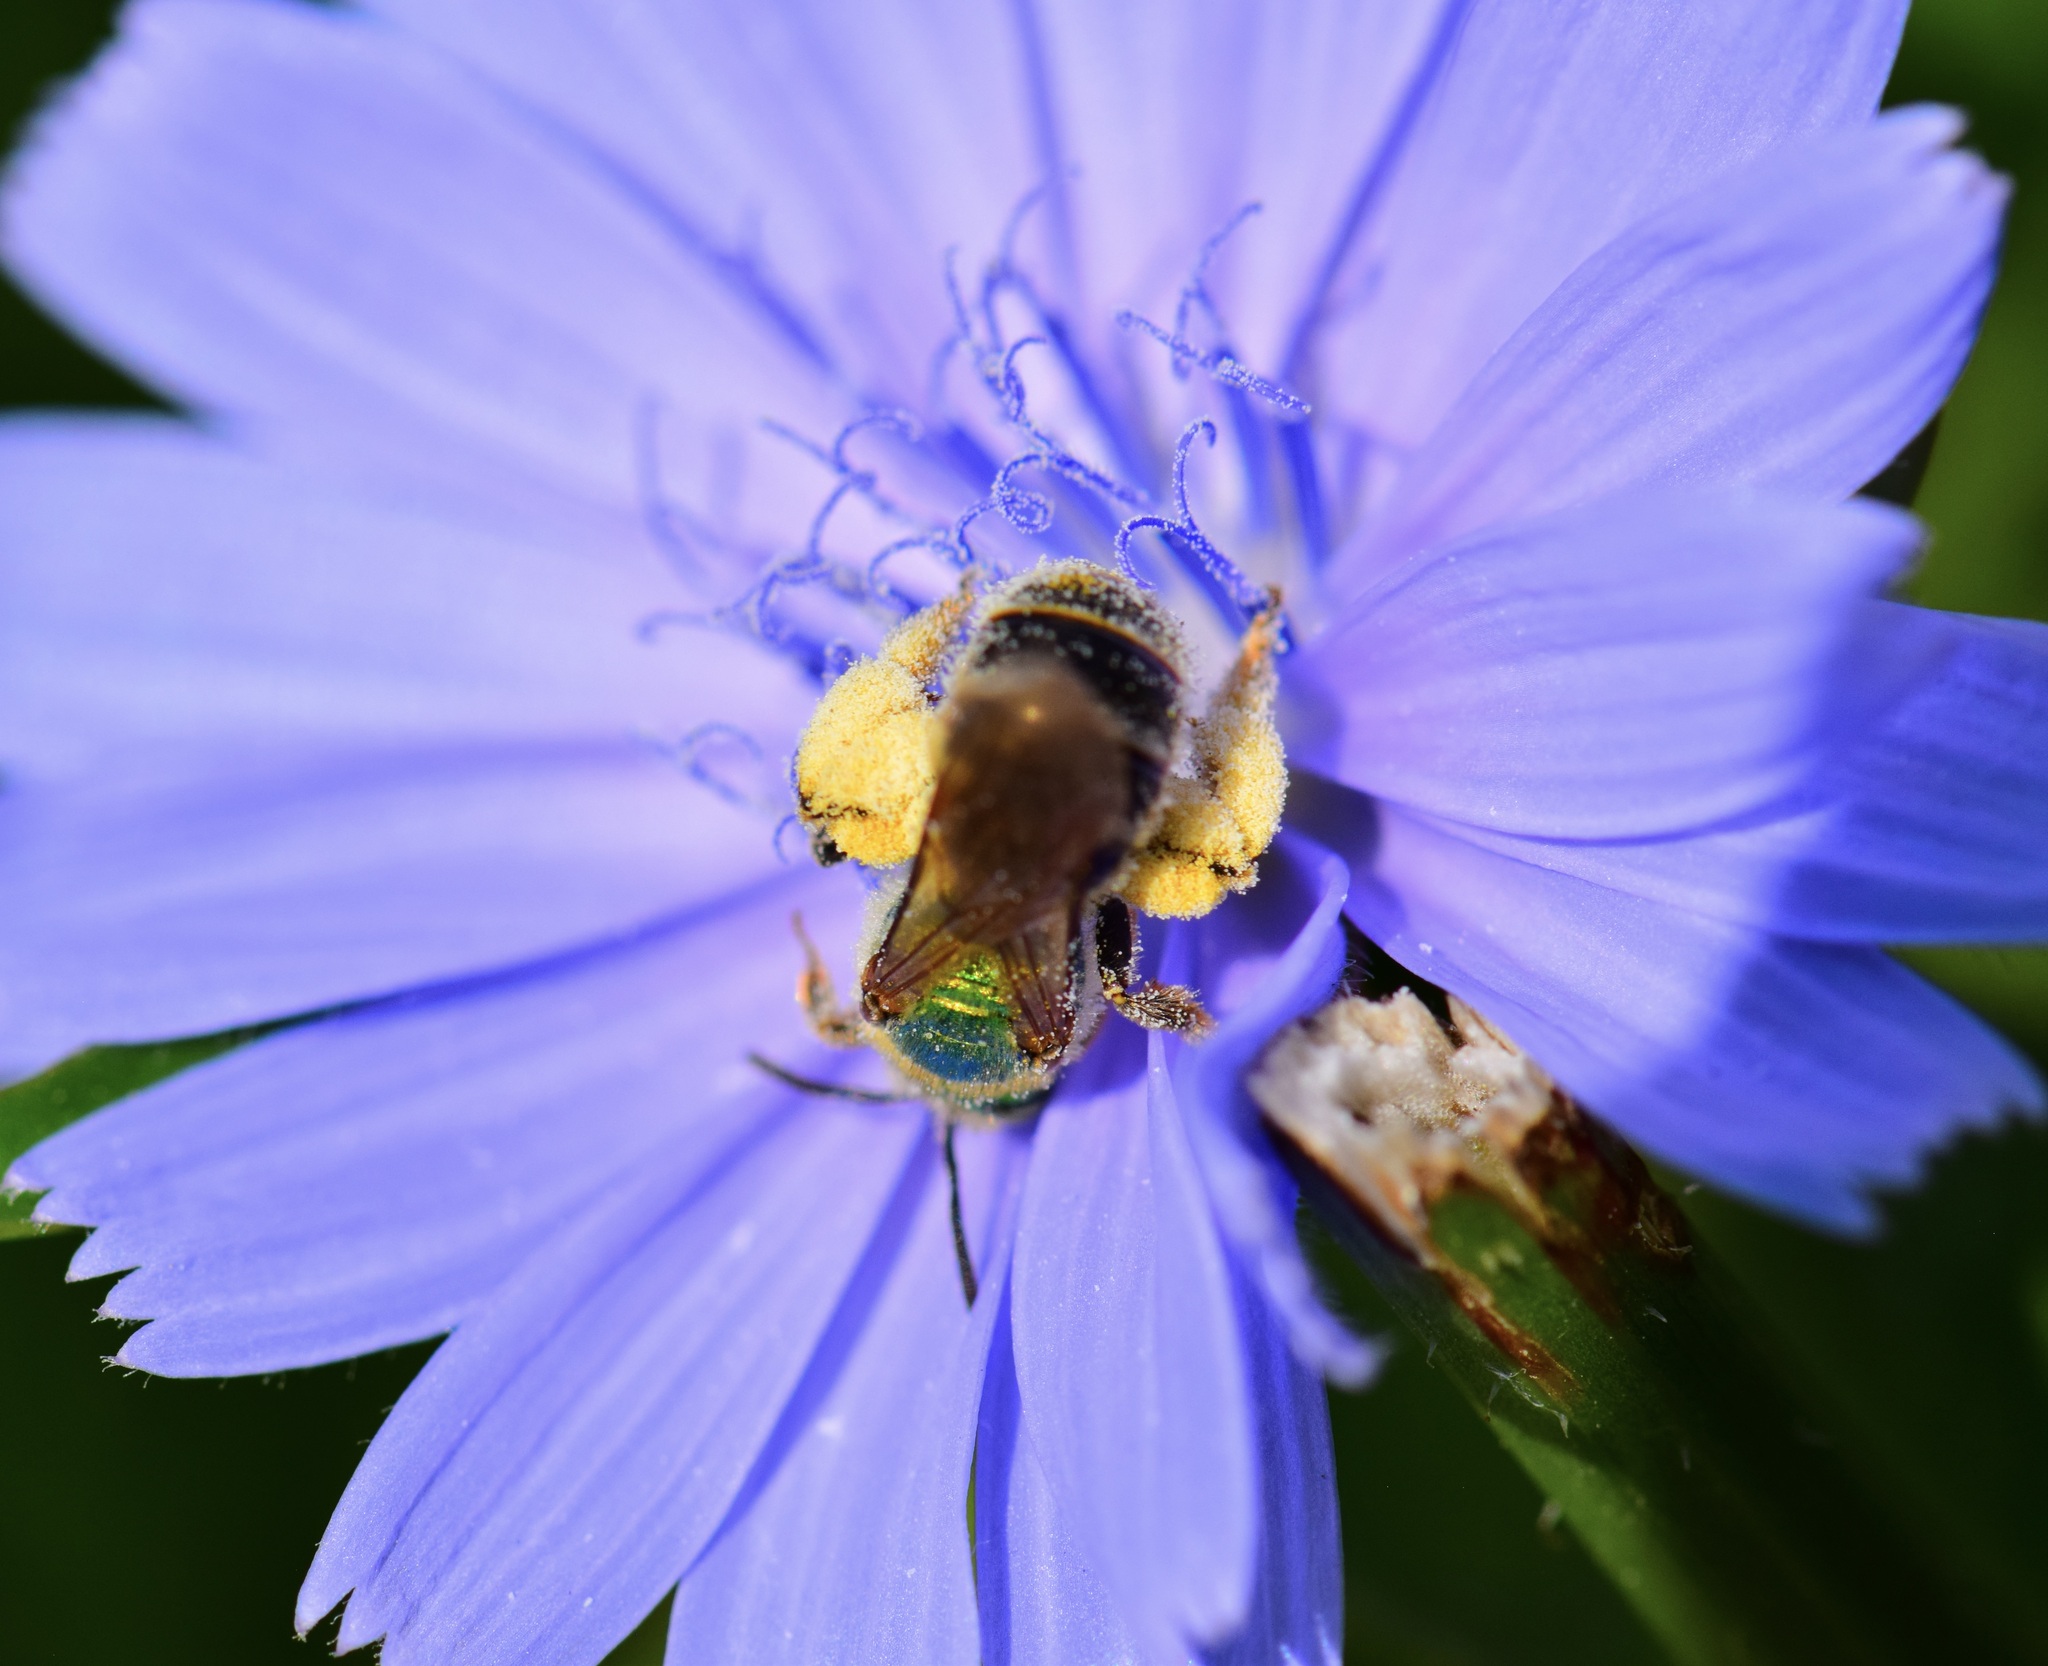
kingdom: Animalia
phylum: Arthropoda
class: Insecta
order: Hymenoptera
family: Halictidae
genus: Agapostemon
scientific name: Agapostemon virescens
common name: Bicolored striped sweat bee
